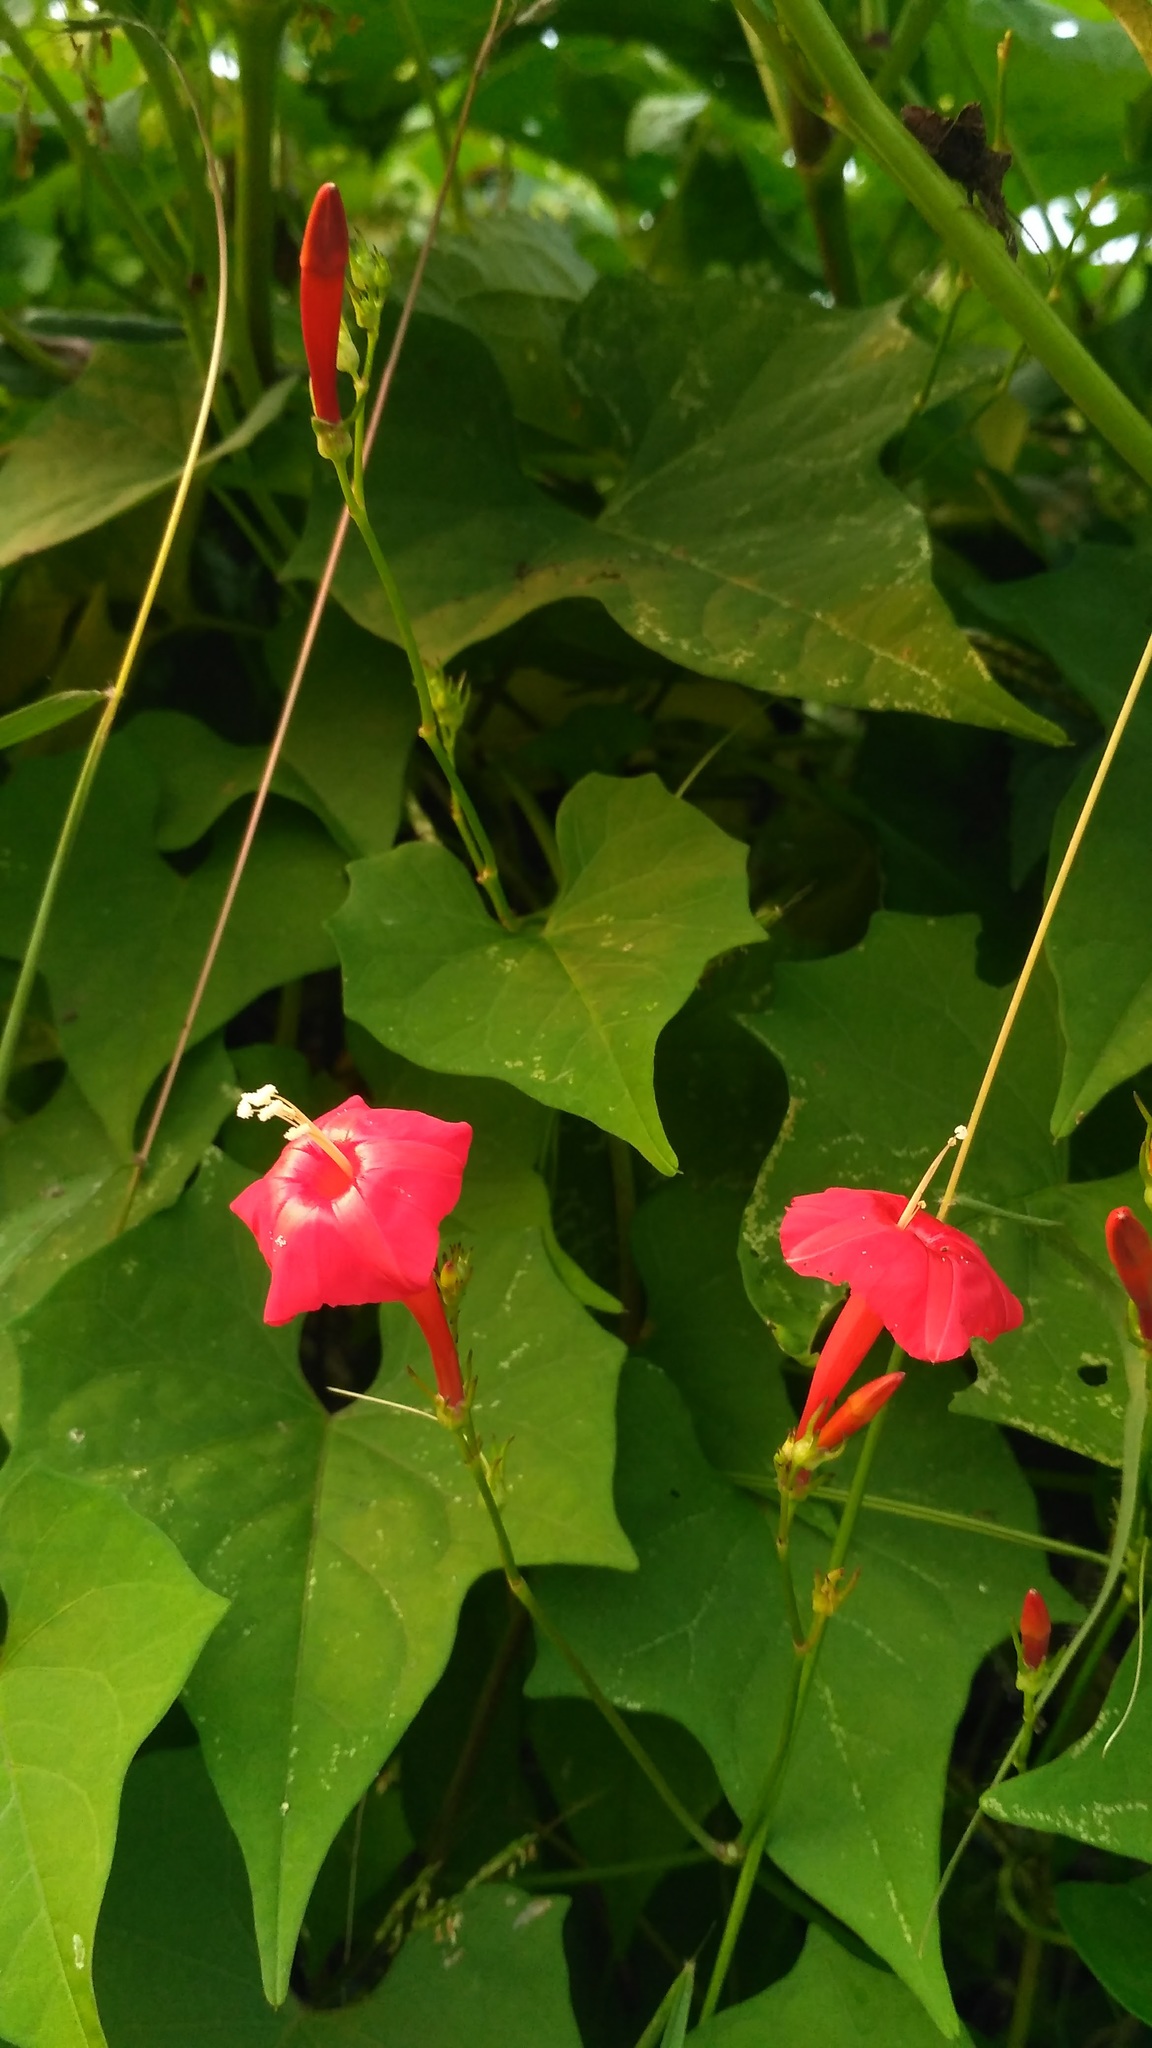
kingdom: Plantae
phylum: Tracheophyta
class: Magnoliopsida
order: Solanales
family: Convolvulaceae
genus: Ipomoea
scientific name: Ipomoea hederifolia
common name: Ivy-leaf morning-glory
